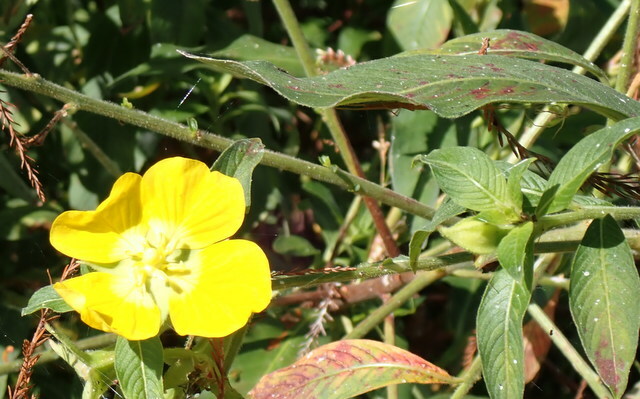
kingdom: Plantae
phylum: Tracheophyta
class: Magnoliopsida
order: Myrtales
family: Onagraceae
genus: Ludwigia
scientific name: Ludwigia peruviana
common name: Peruvian primrose-willow
